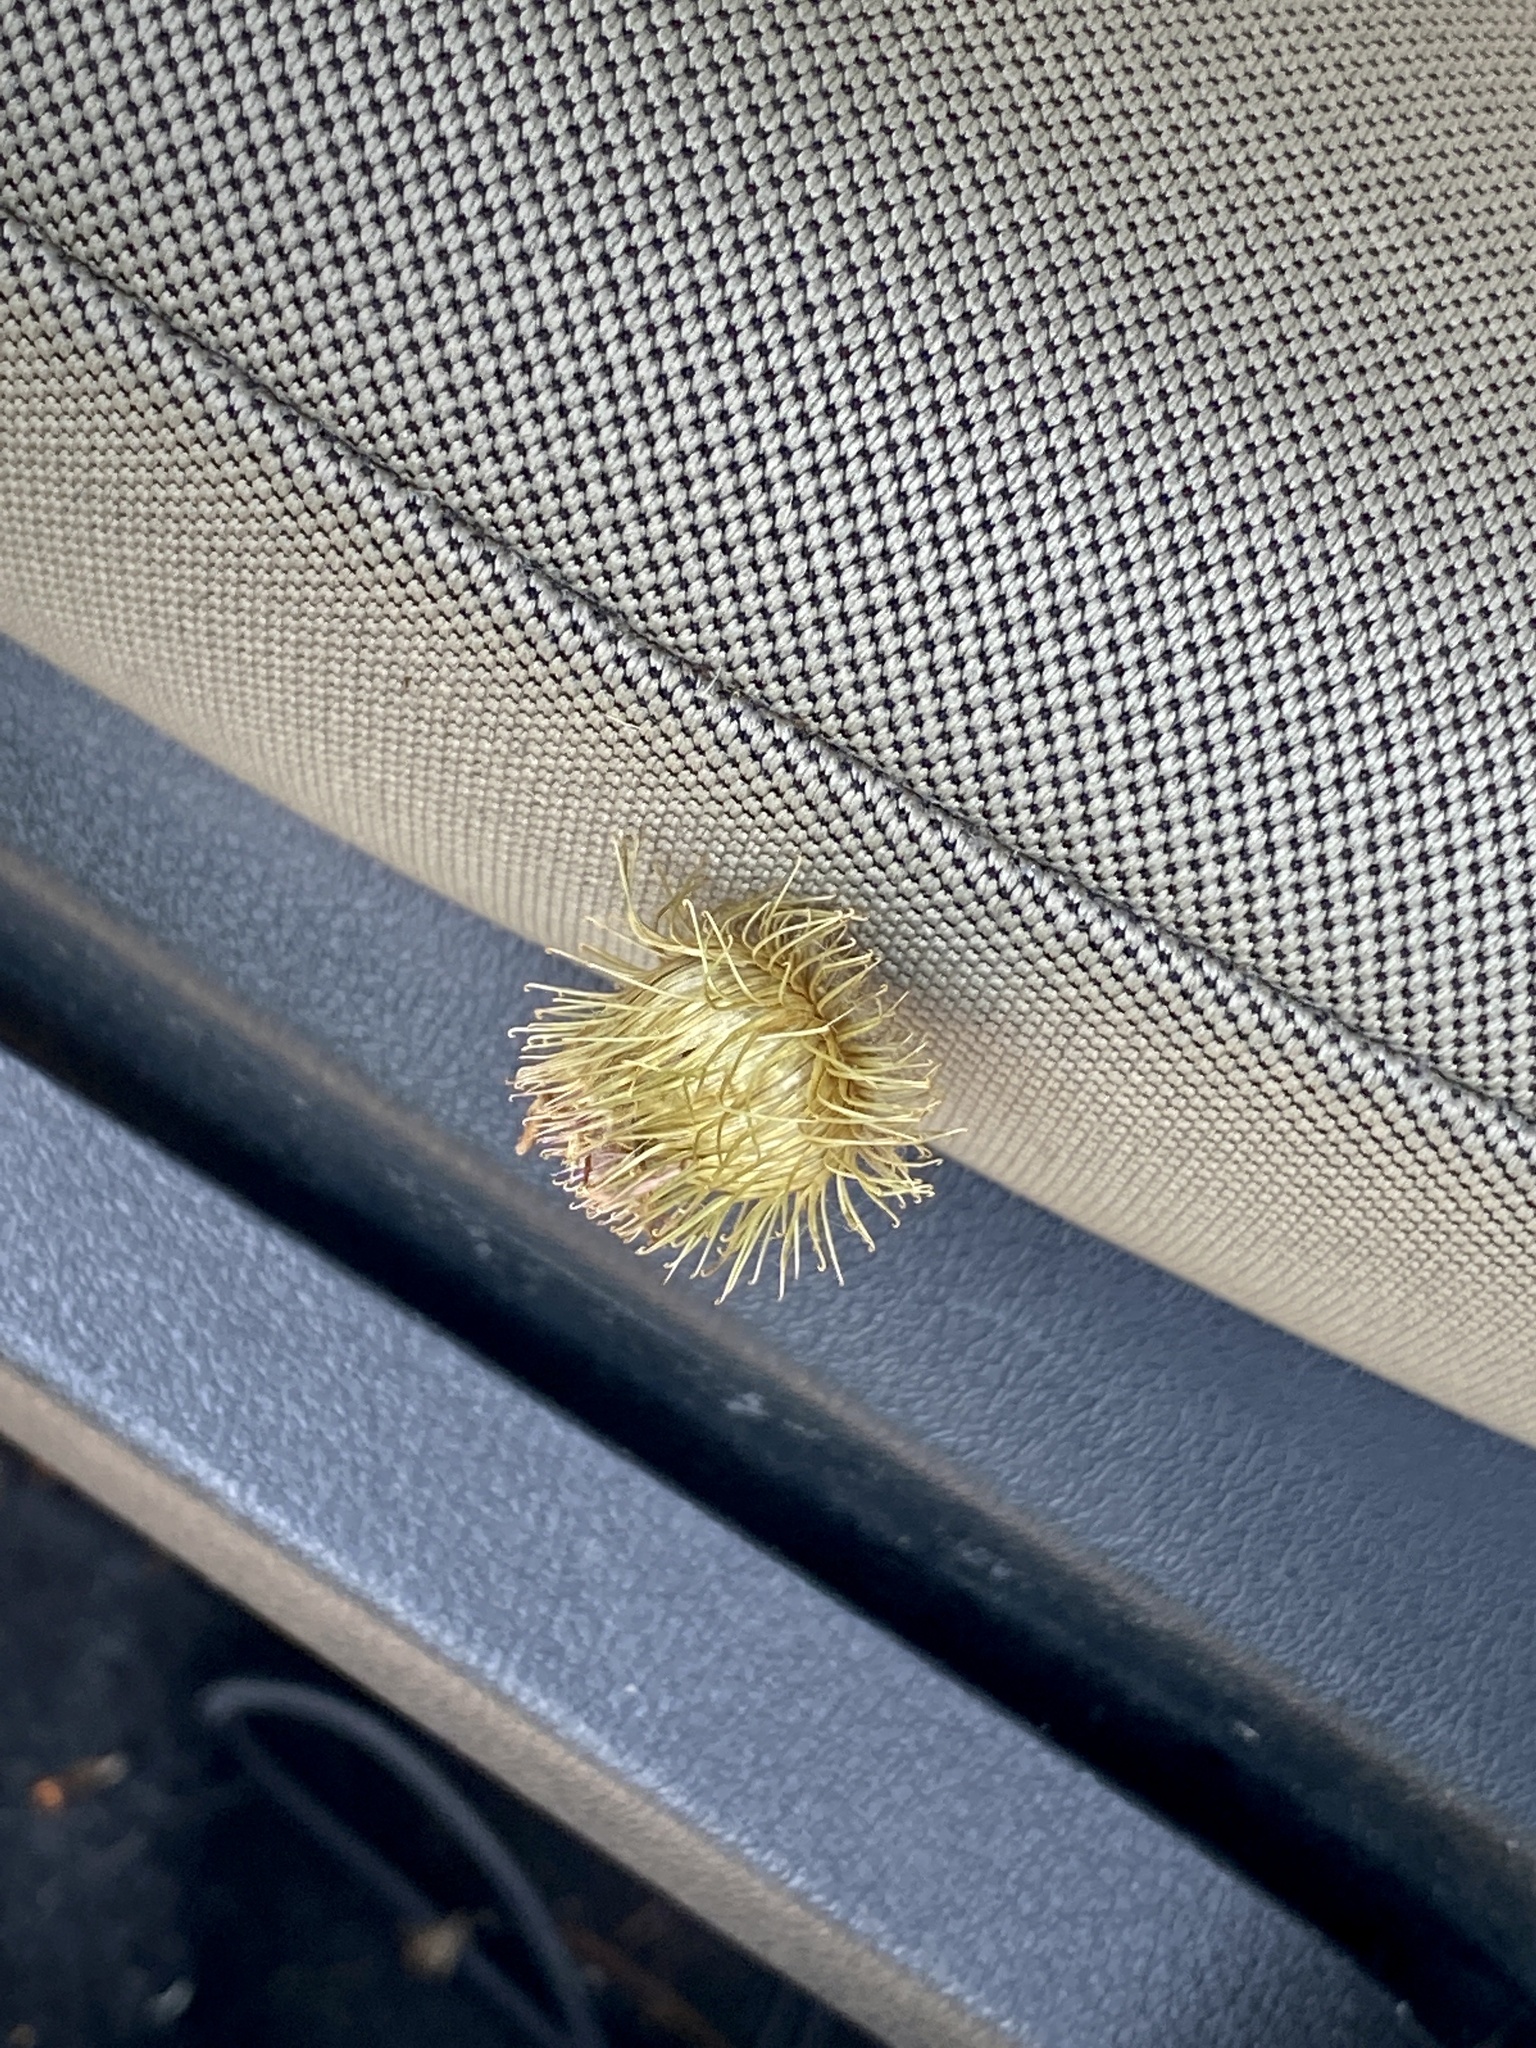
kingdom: Plantae
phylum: Tracheophyta
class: Magnoliopsida
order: Asterales
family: Asteraceae
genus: Arctium
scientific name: Arctium
